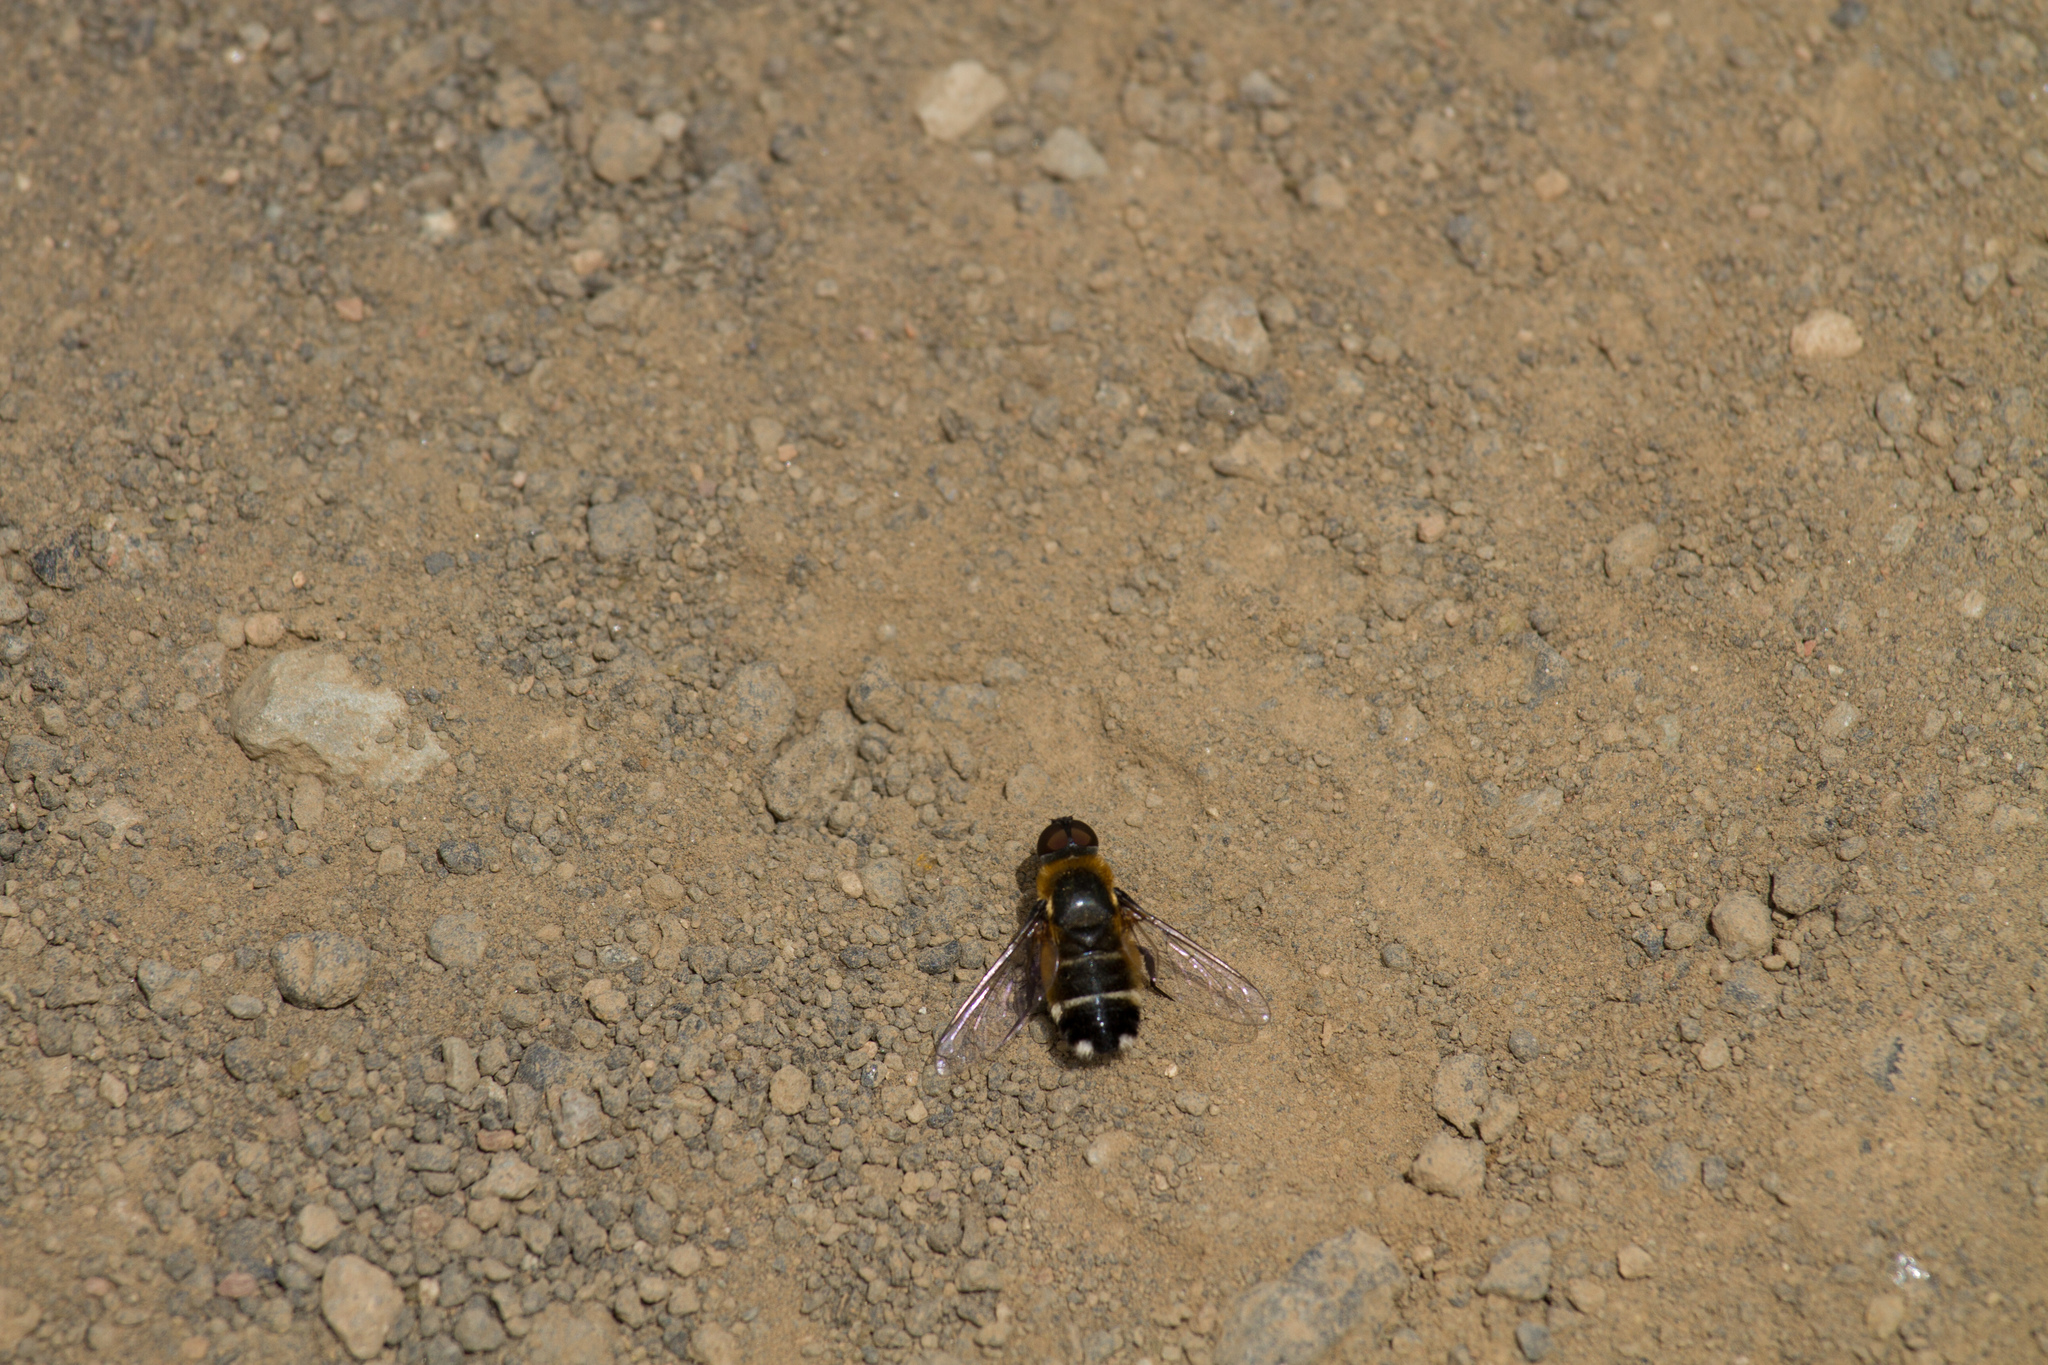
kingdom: Animalia
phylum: Arthropoda
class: Insecta
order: Diptera
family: Bombyliidae
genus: Villa
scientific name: Villa nigriceps
